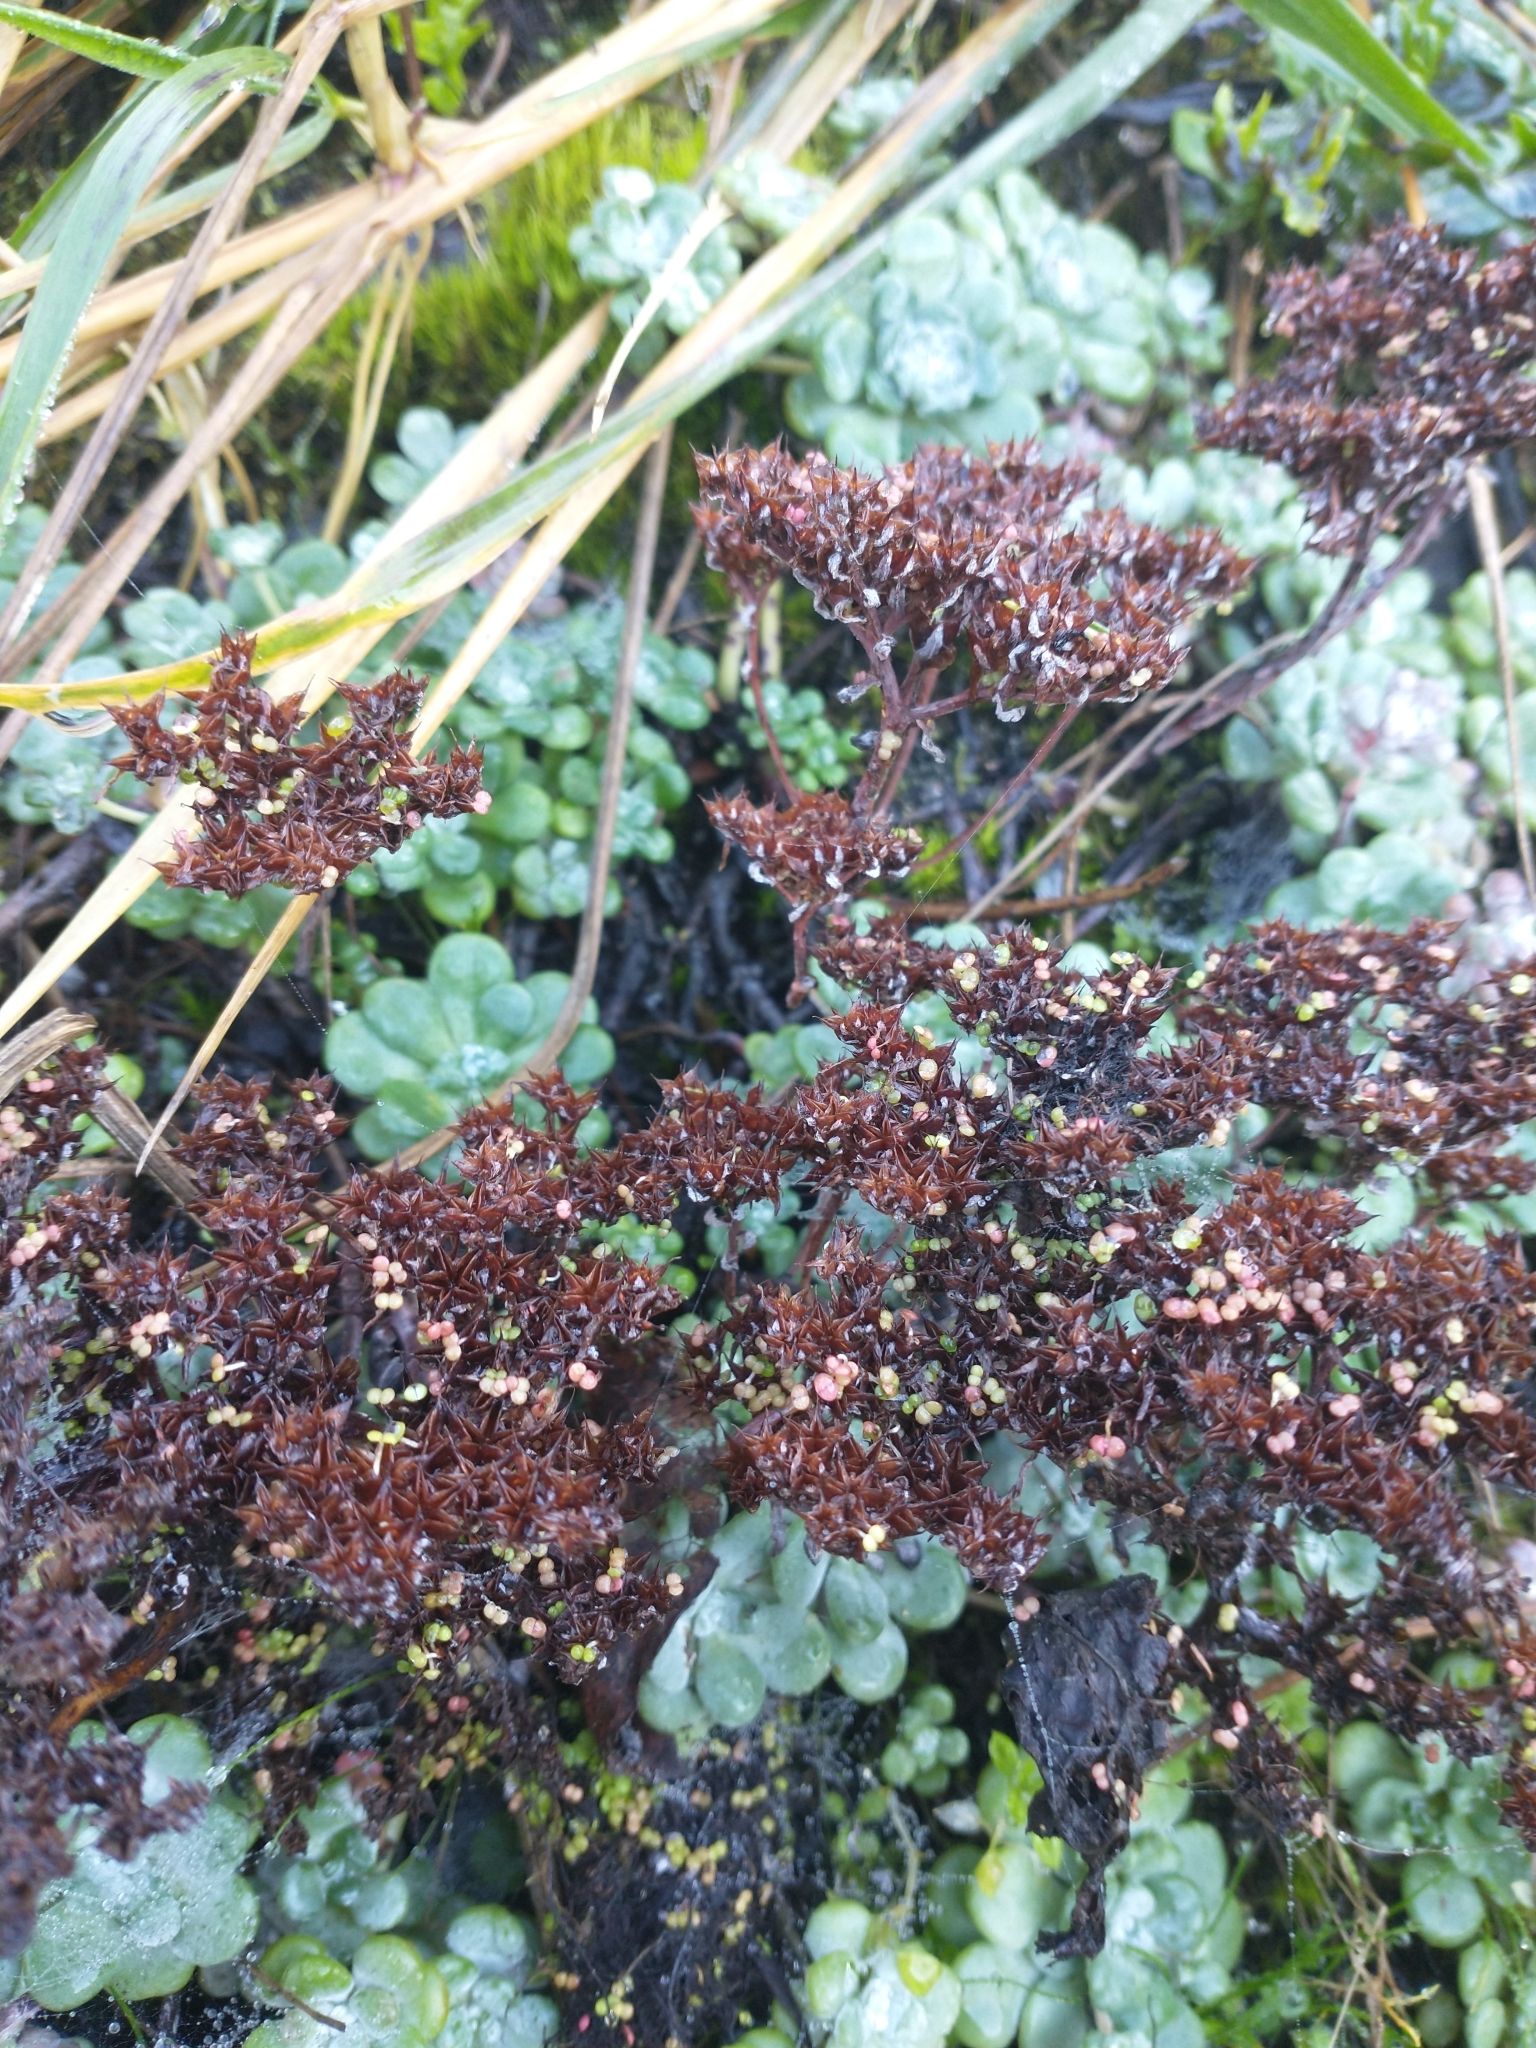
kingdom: Plantae
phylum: Tracheophyta
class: Magnoliopsida
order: Saxifragales
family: Crassulaceae
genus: Sedum
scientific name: Sedum spathulifolium
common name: Colorado stonecrop
